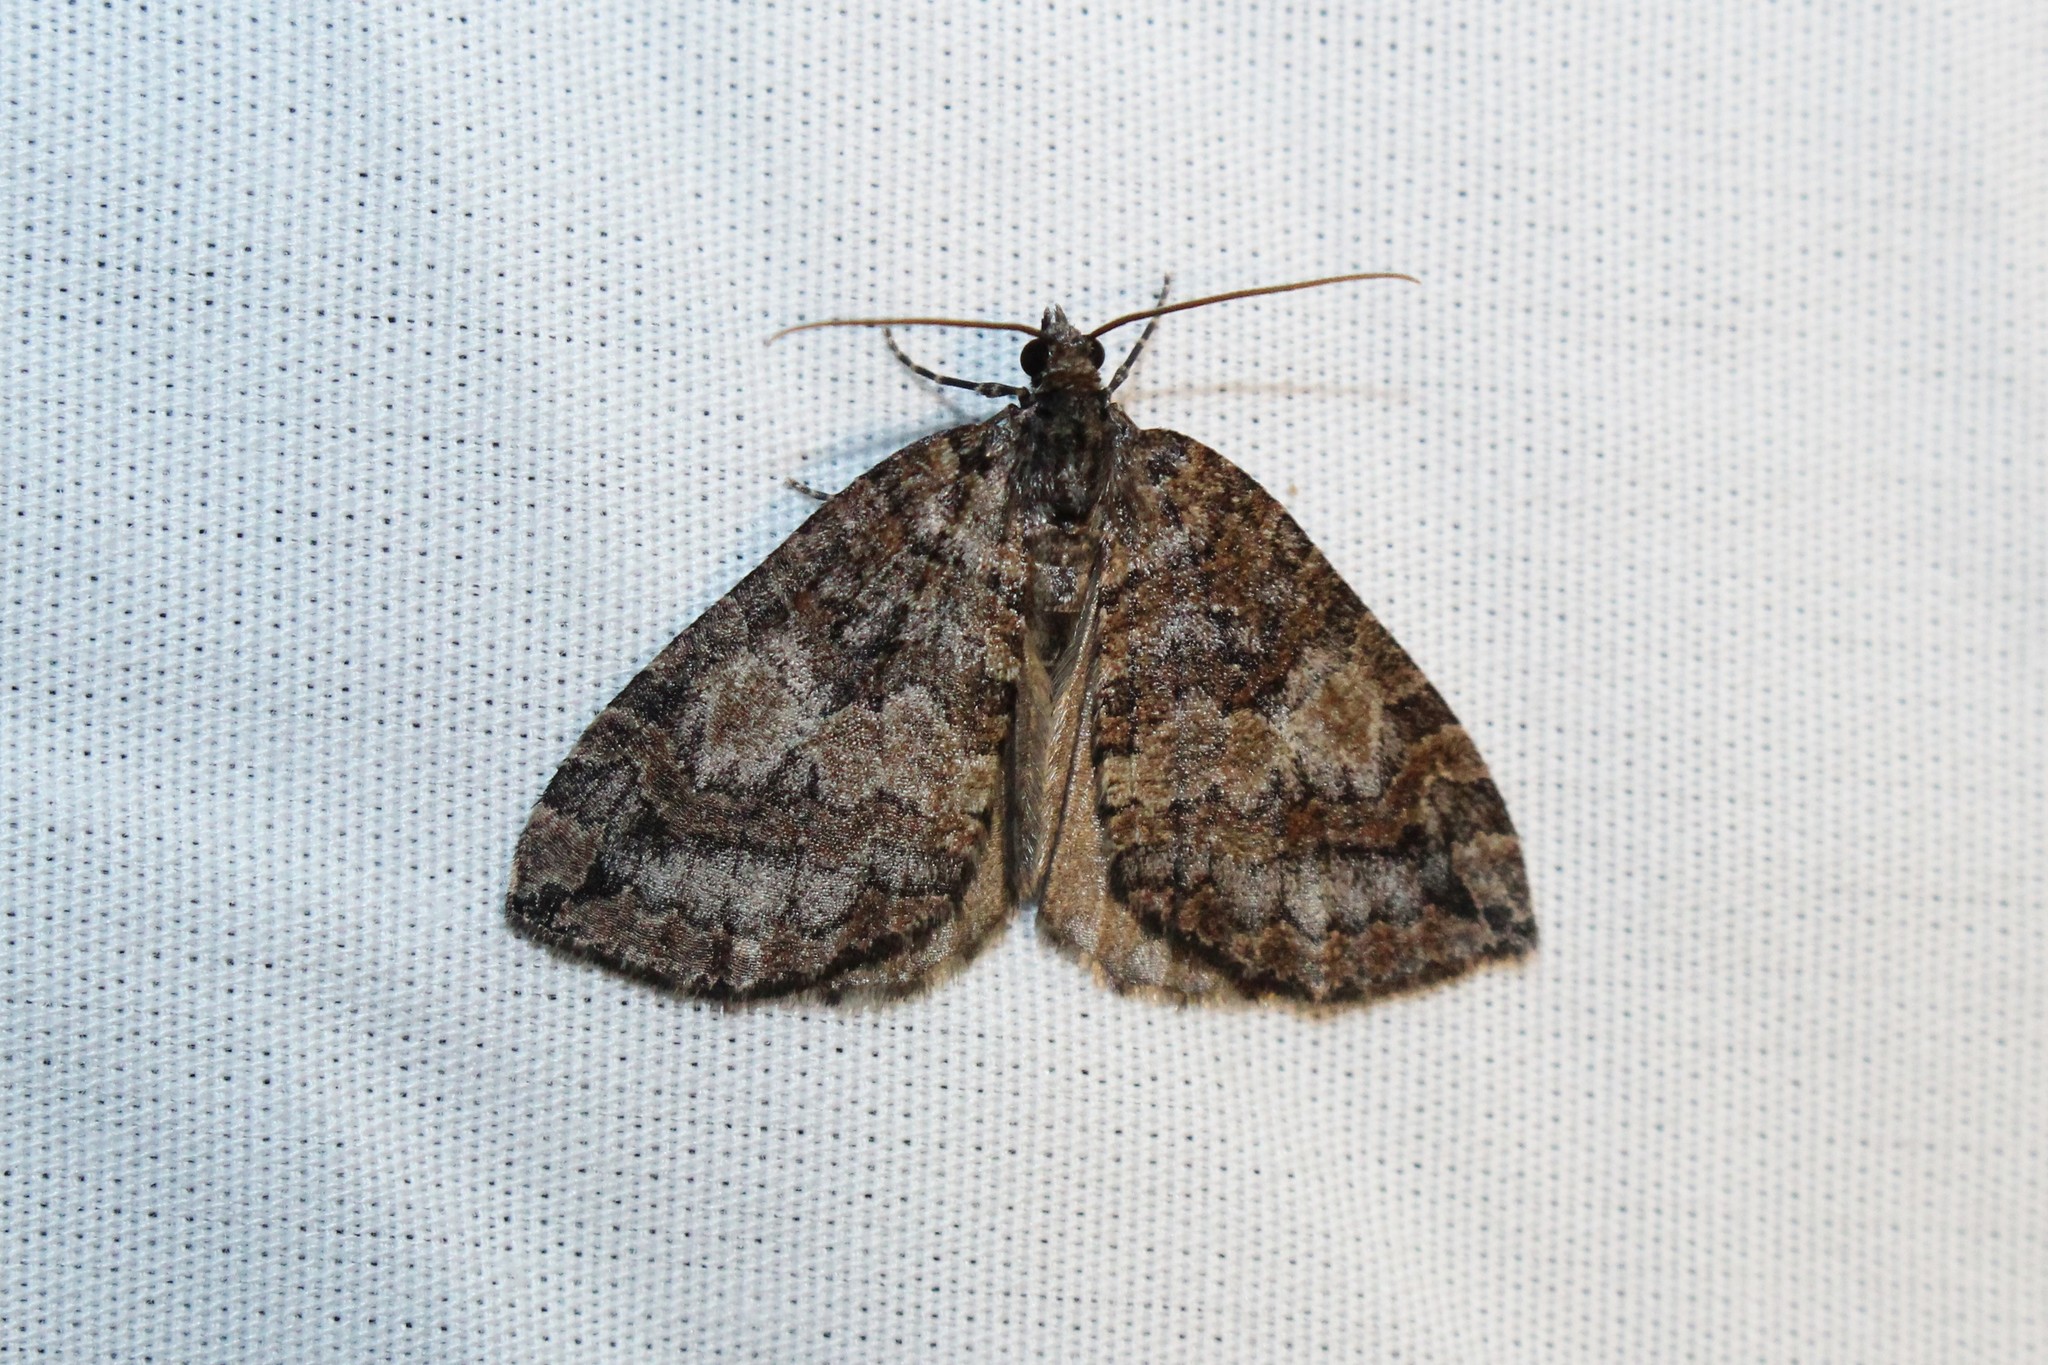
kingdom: Animalia
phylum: Arthropoda
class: Insecta
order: Lepidoptera
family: Geometridae
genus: Hydriomena
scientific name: Hydriomena furcata
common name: July highflyer
